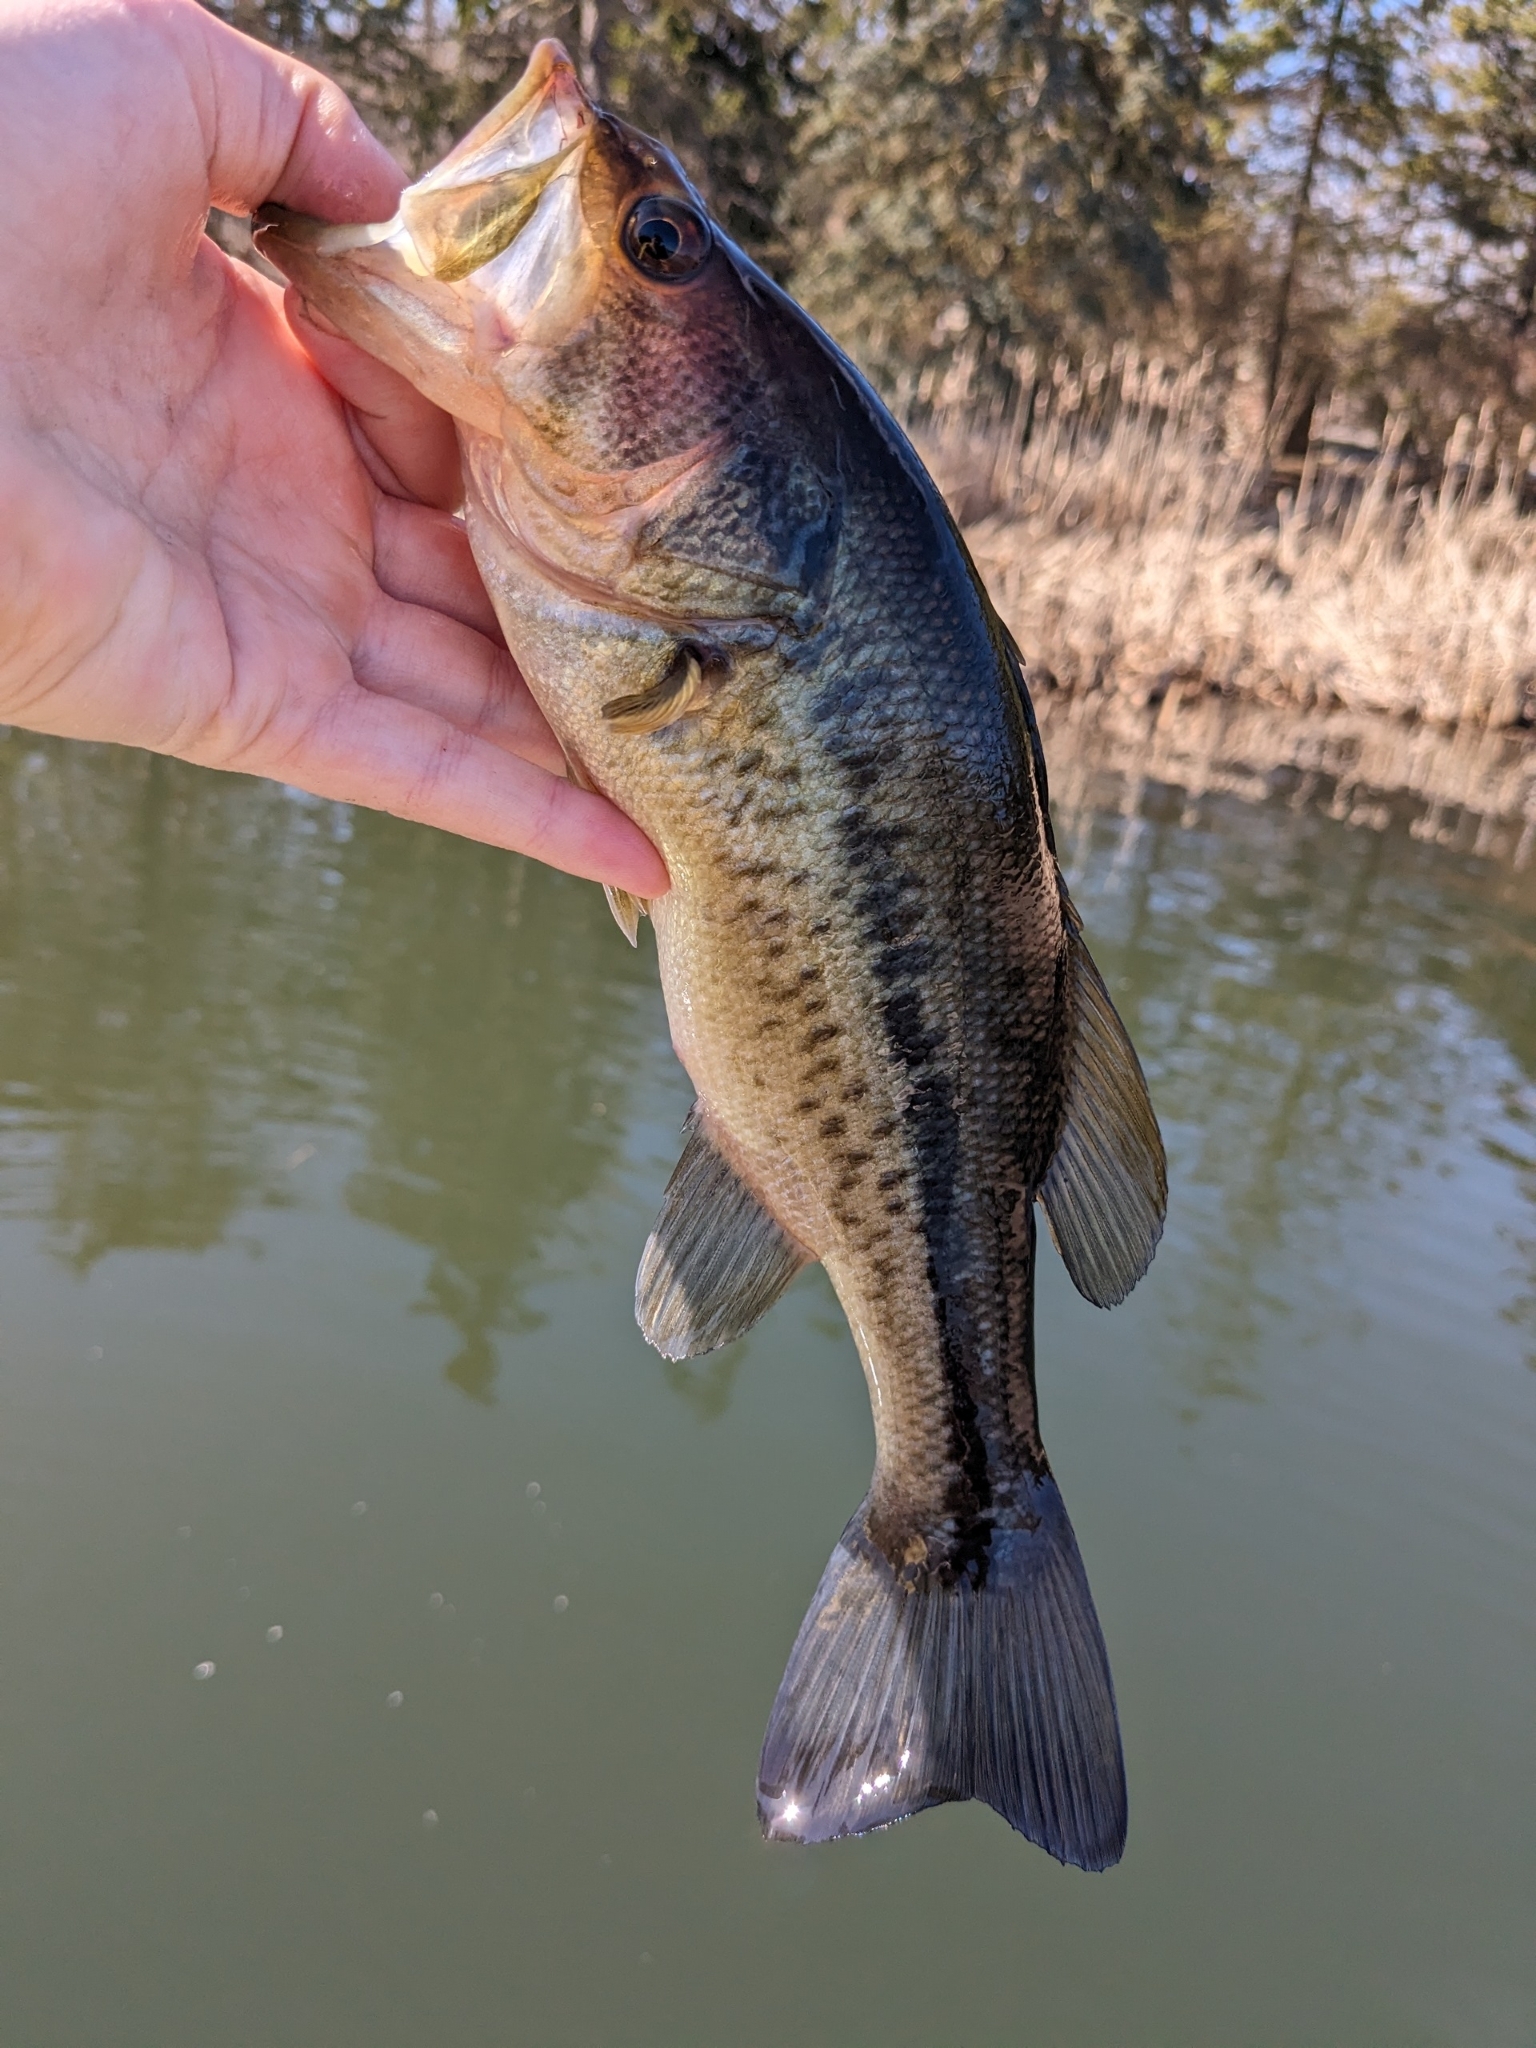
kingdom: Animalia
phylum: Chordata
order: Perciformes
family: Centrarchidae
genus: Micropterus
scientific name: Micropterus
